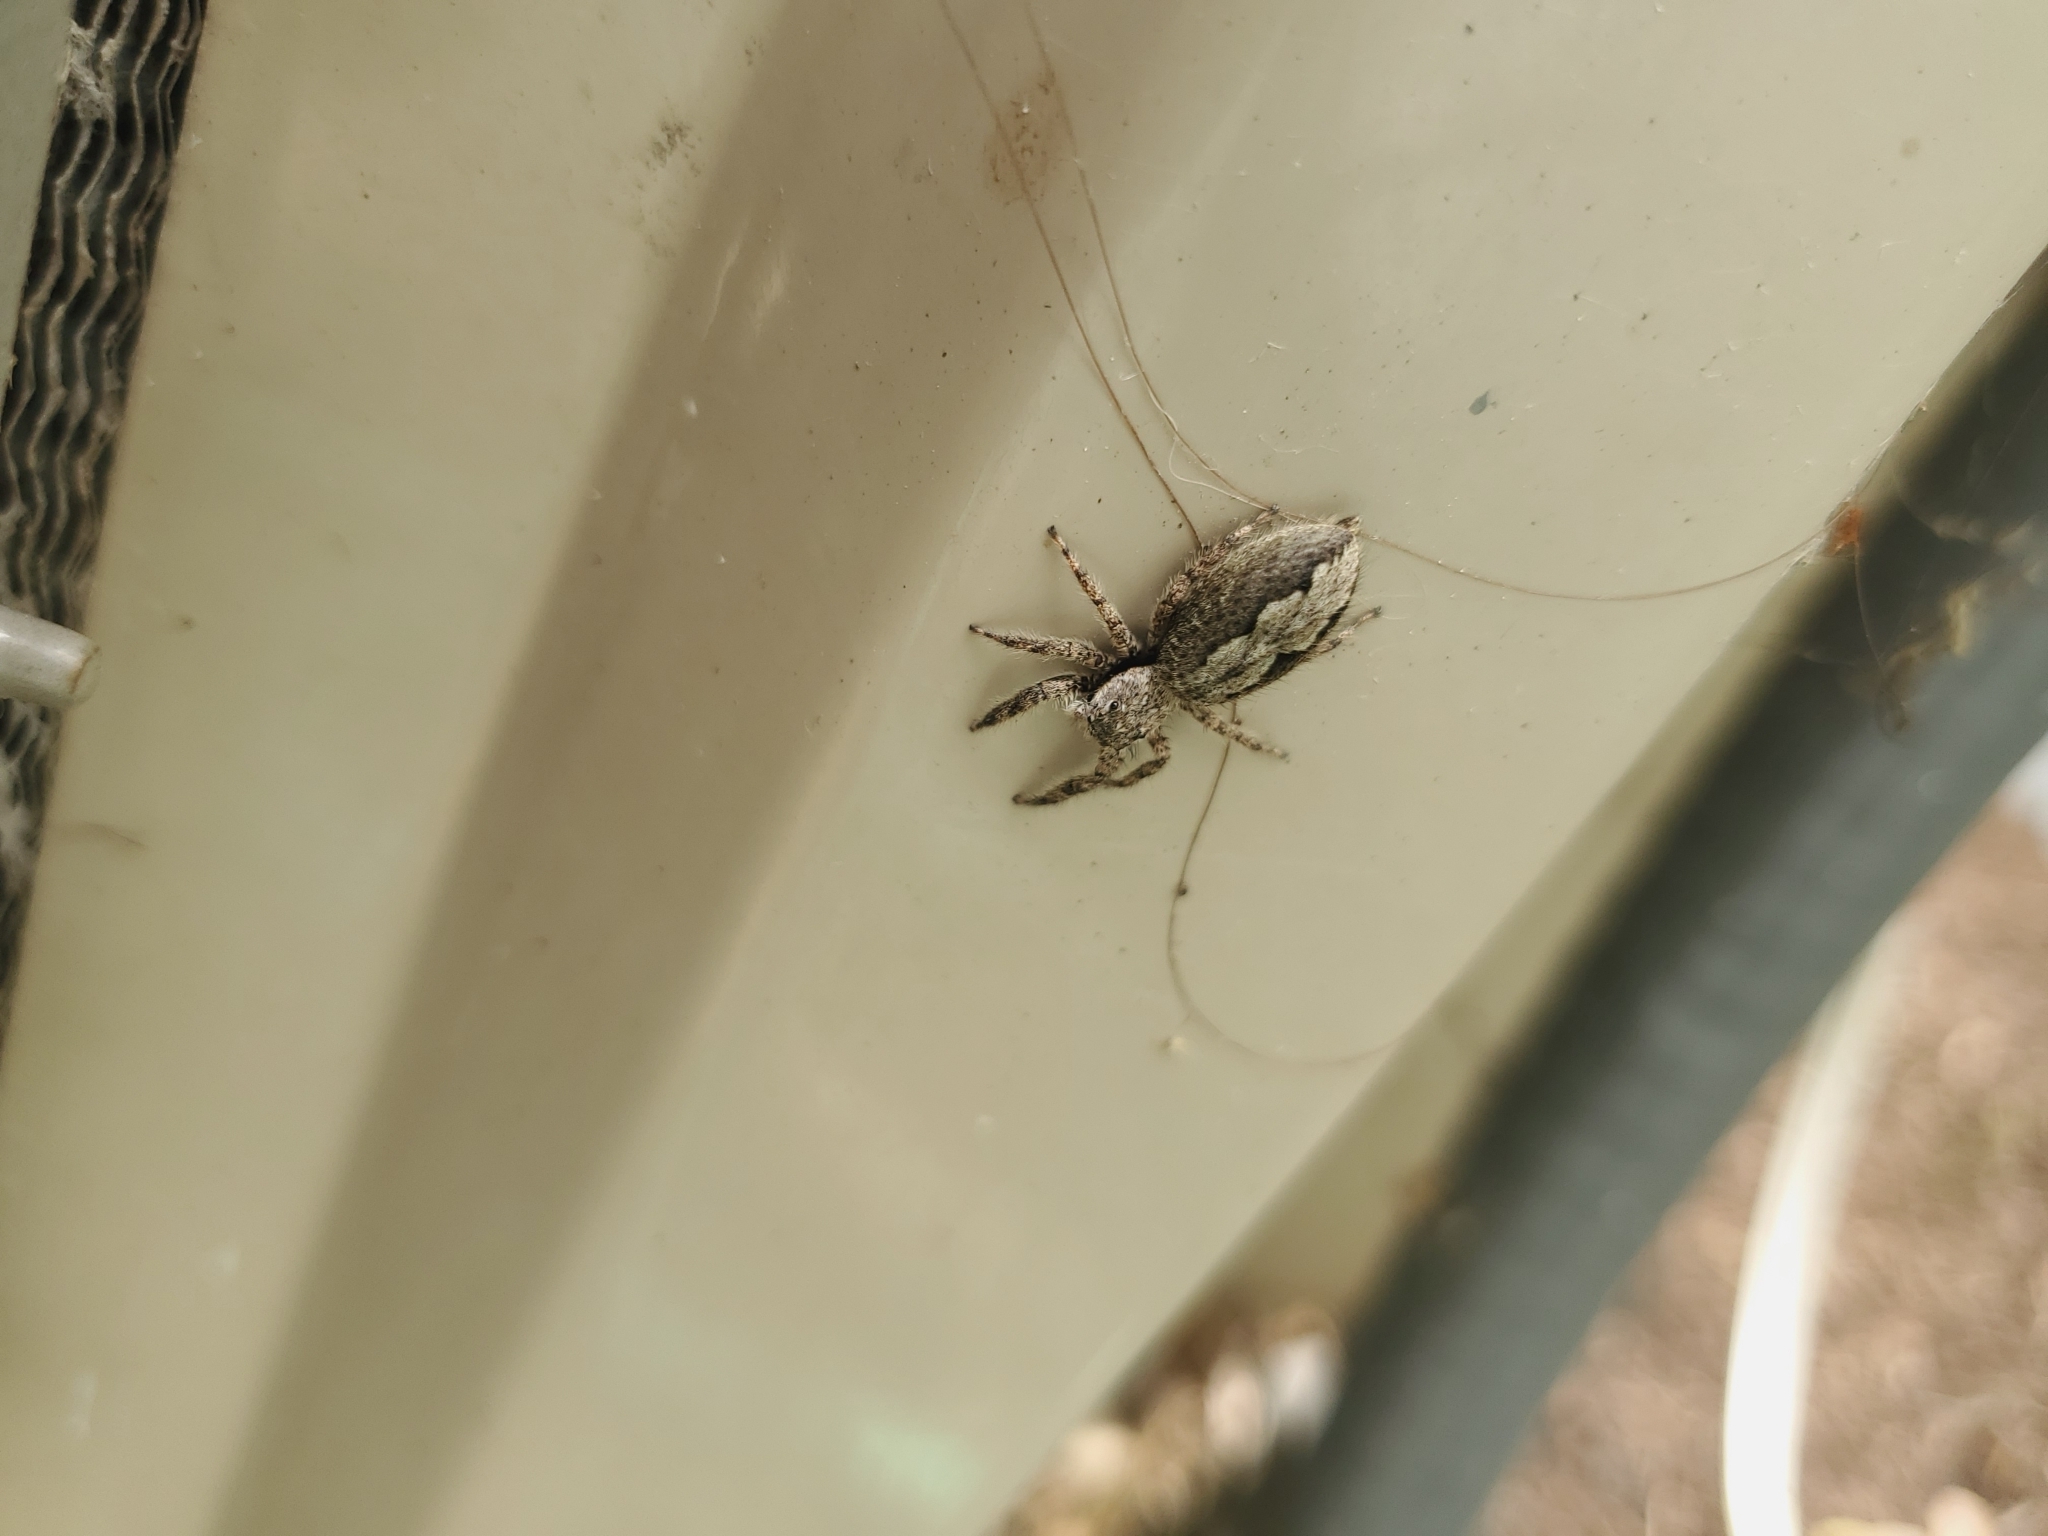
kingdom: Animalia
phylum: Arthropoda
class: Arachnida
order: Araneae
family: Salticidae
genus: Platycryptus
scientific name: Platycryptus undatus
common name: Tan jumping spider
